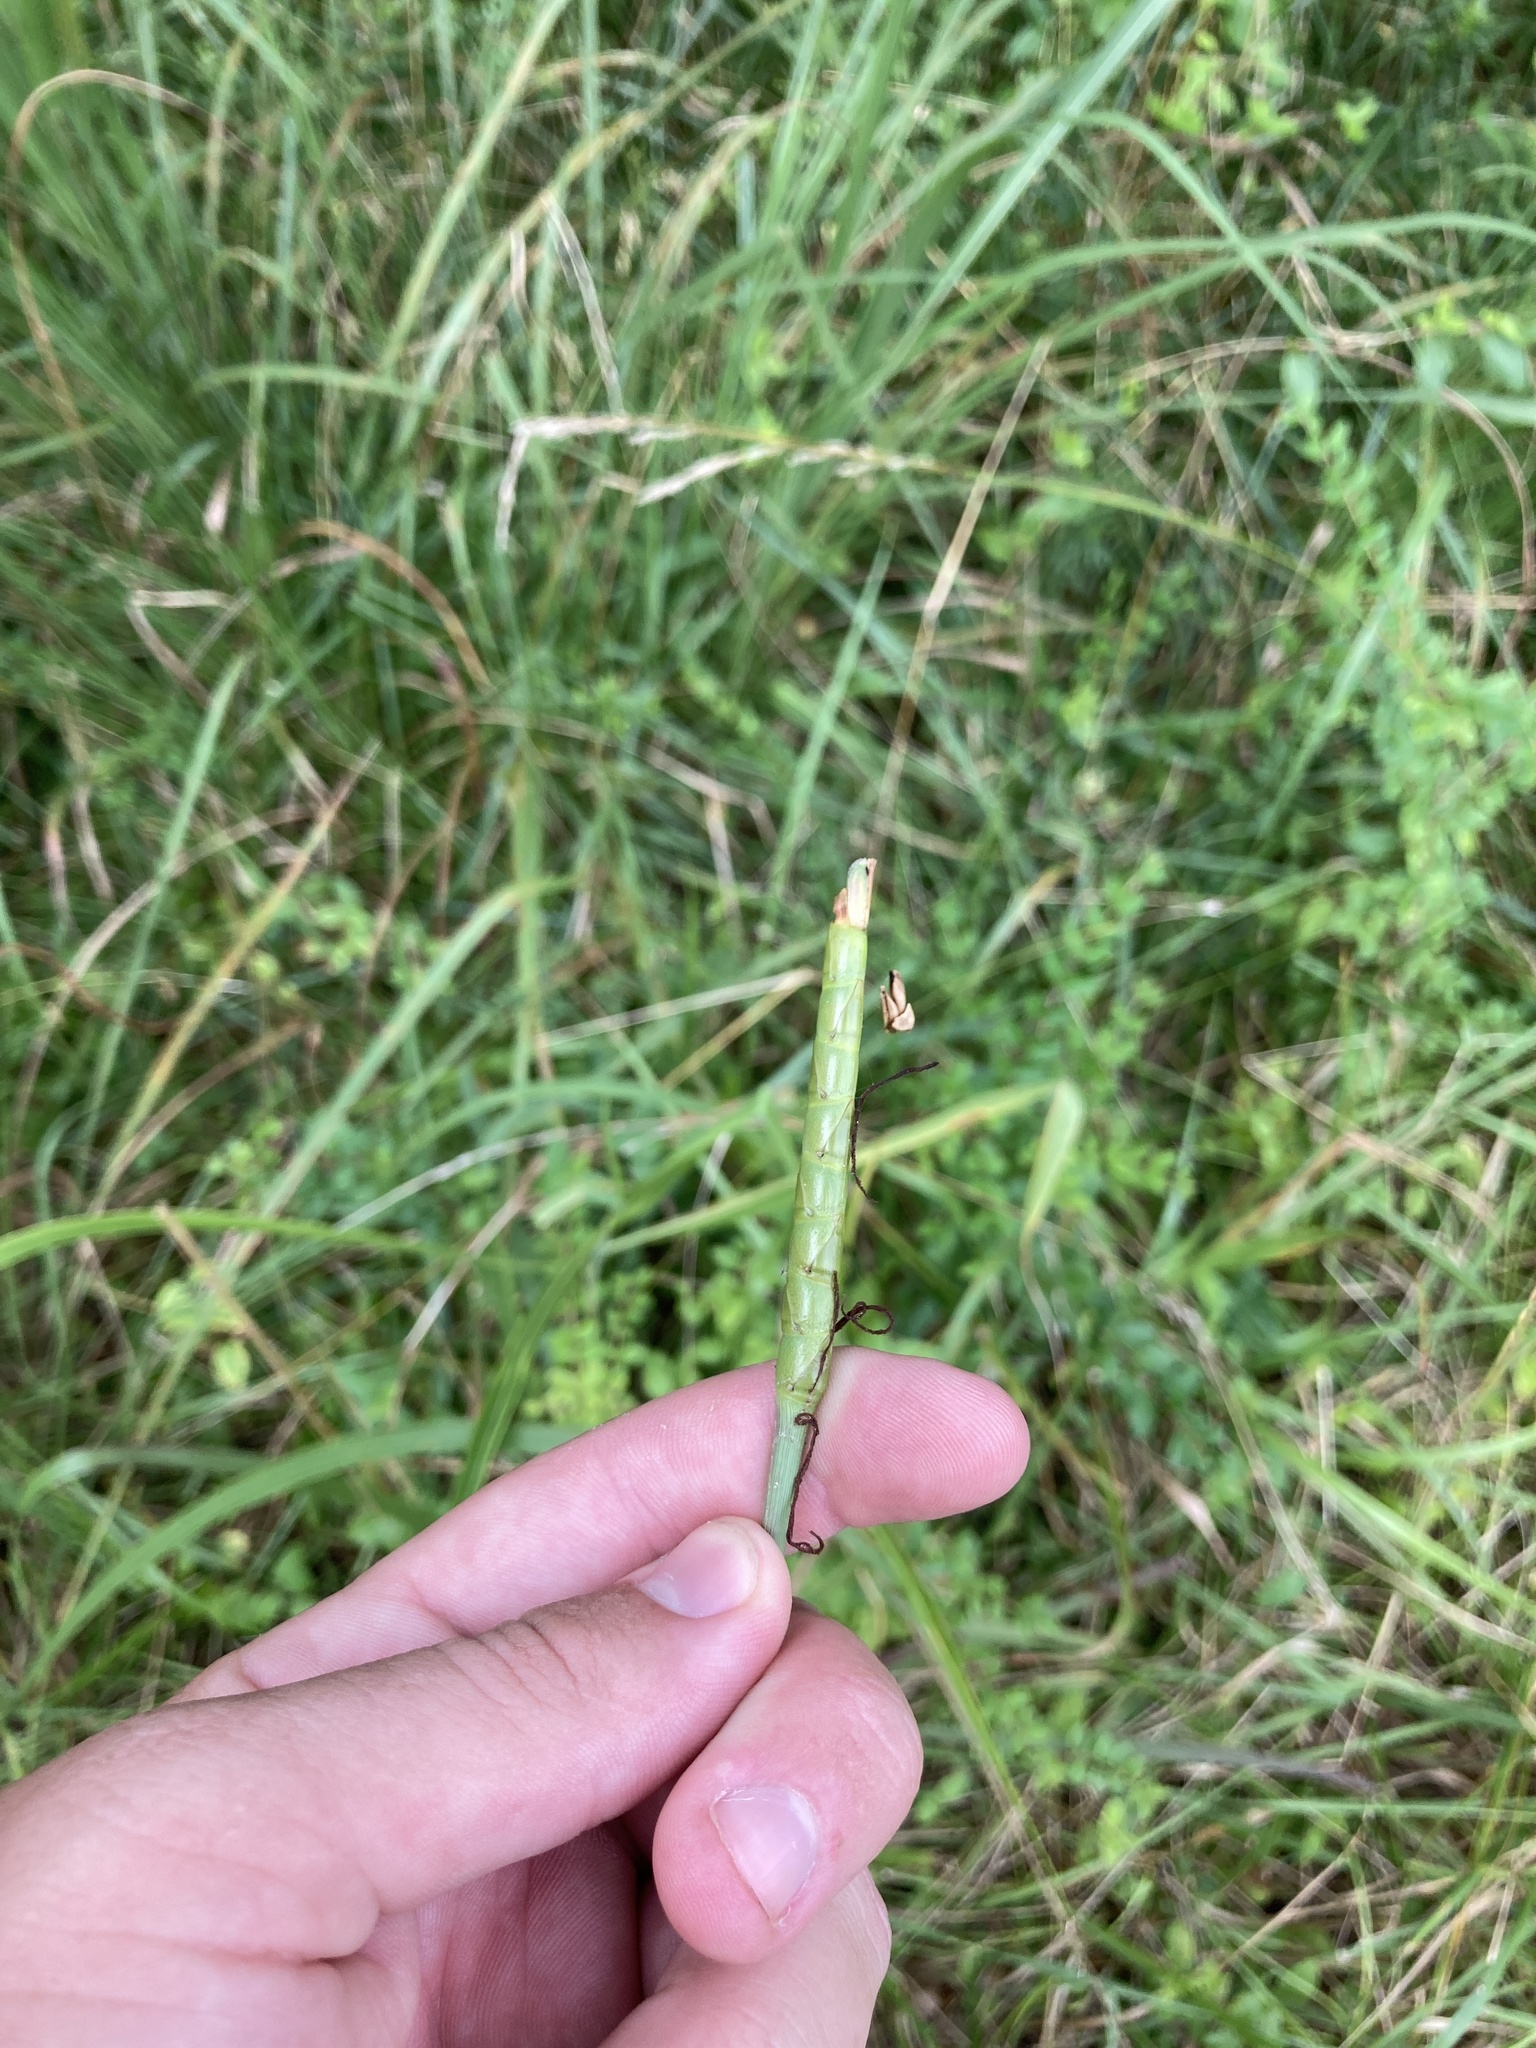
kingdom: Plantae
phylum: Tracheophyta
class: Liliopsida
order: Poales
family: Poaceae
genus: Tripsacum
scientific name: Tripsacum dactyloides
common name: Buffalo-grass
